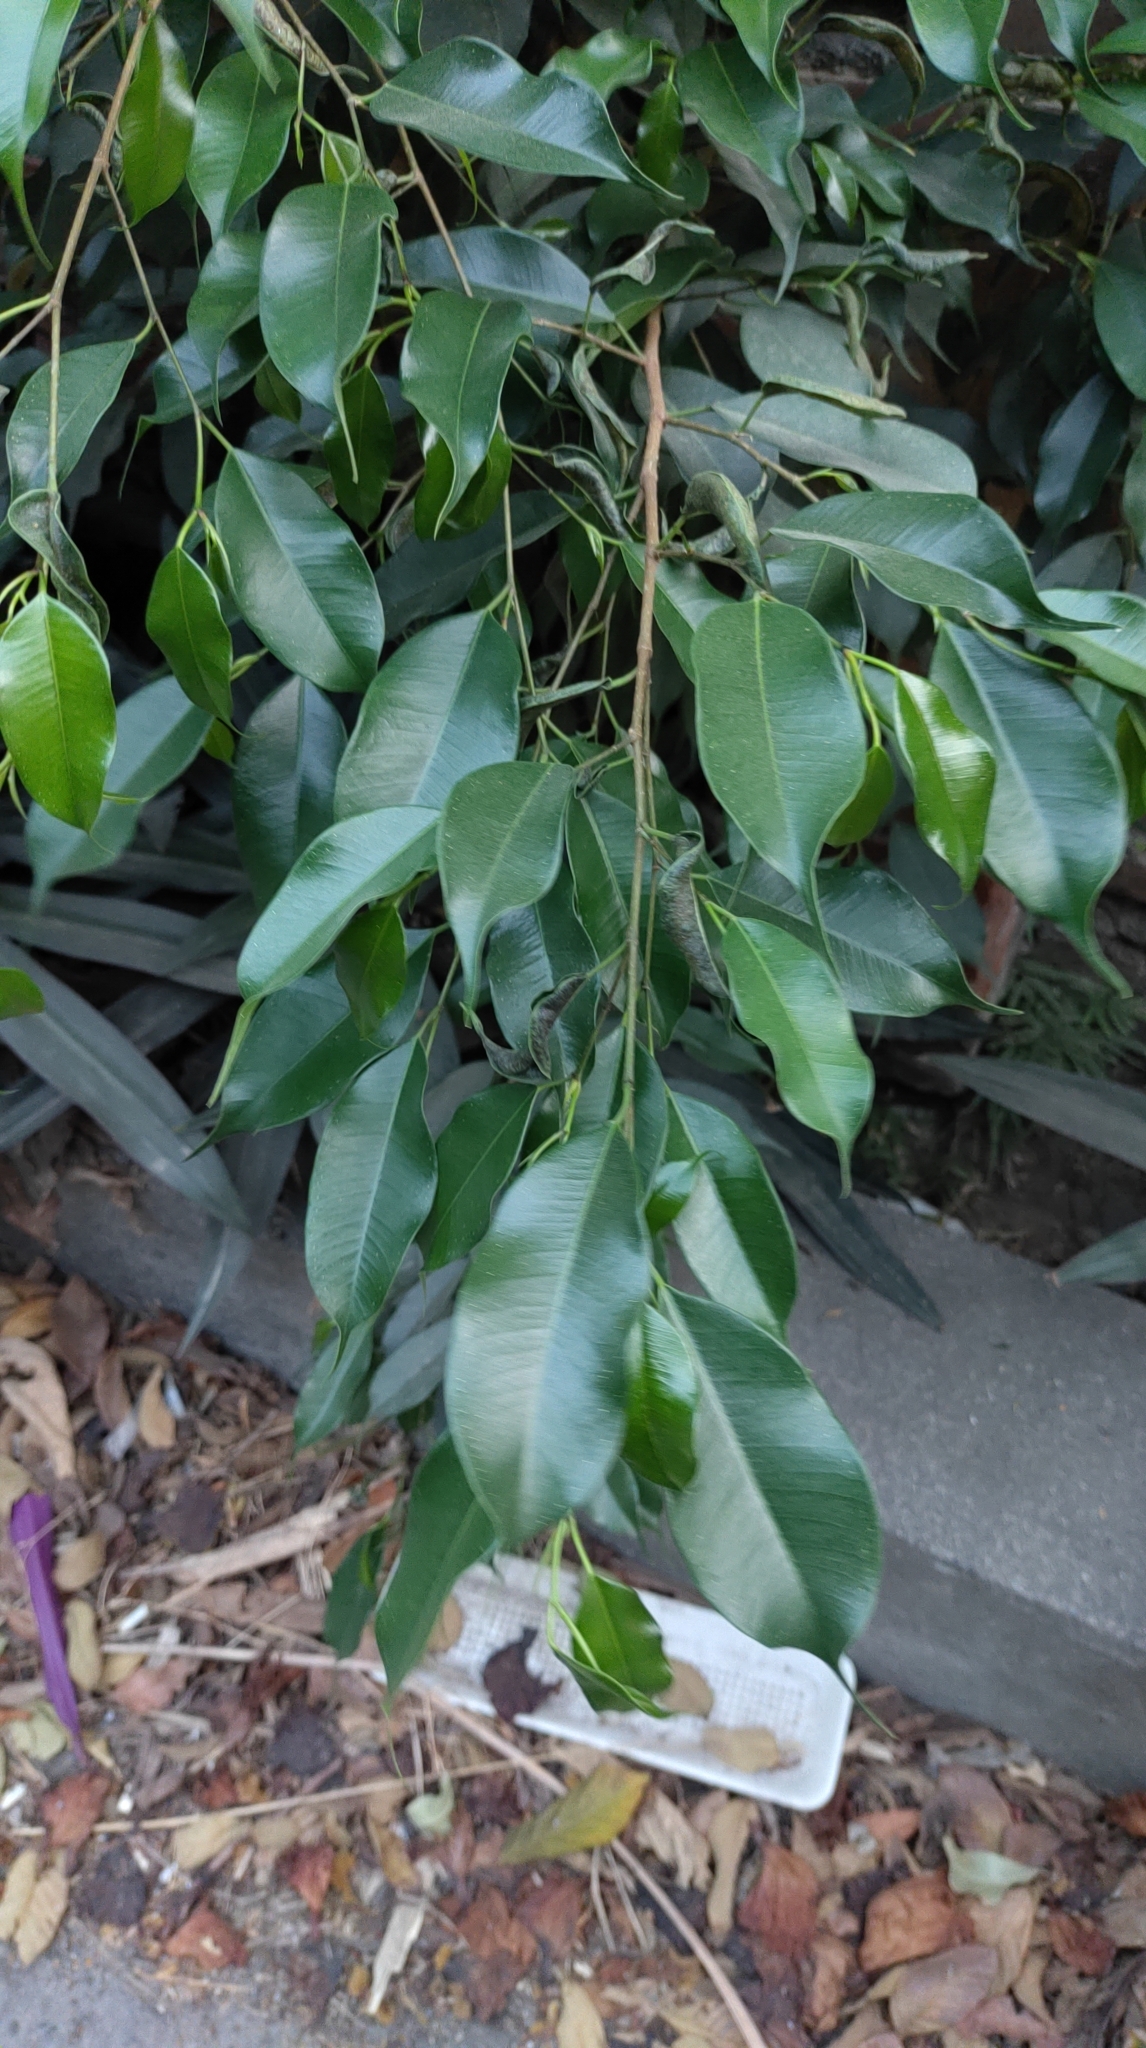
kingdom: Plantae
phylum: Tracheophyta
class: Magnoliopsida
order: Rosales
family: Moraceae
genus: Ficus
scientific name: Ficus benjamina
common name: Weeping fig
